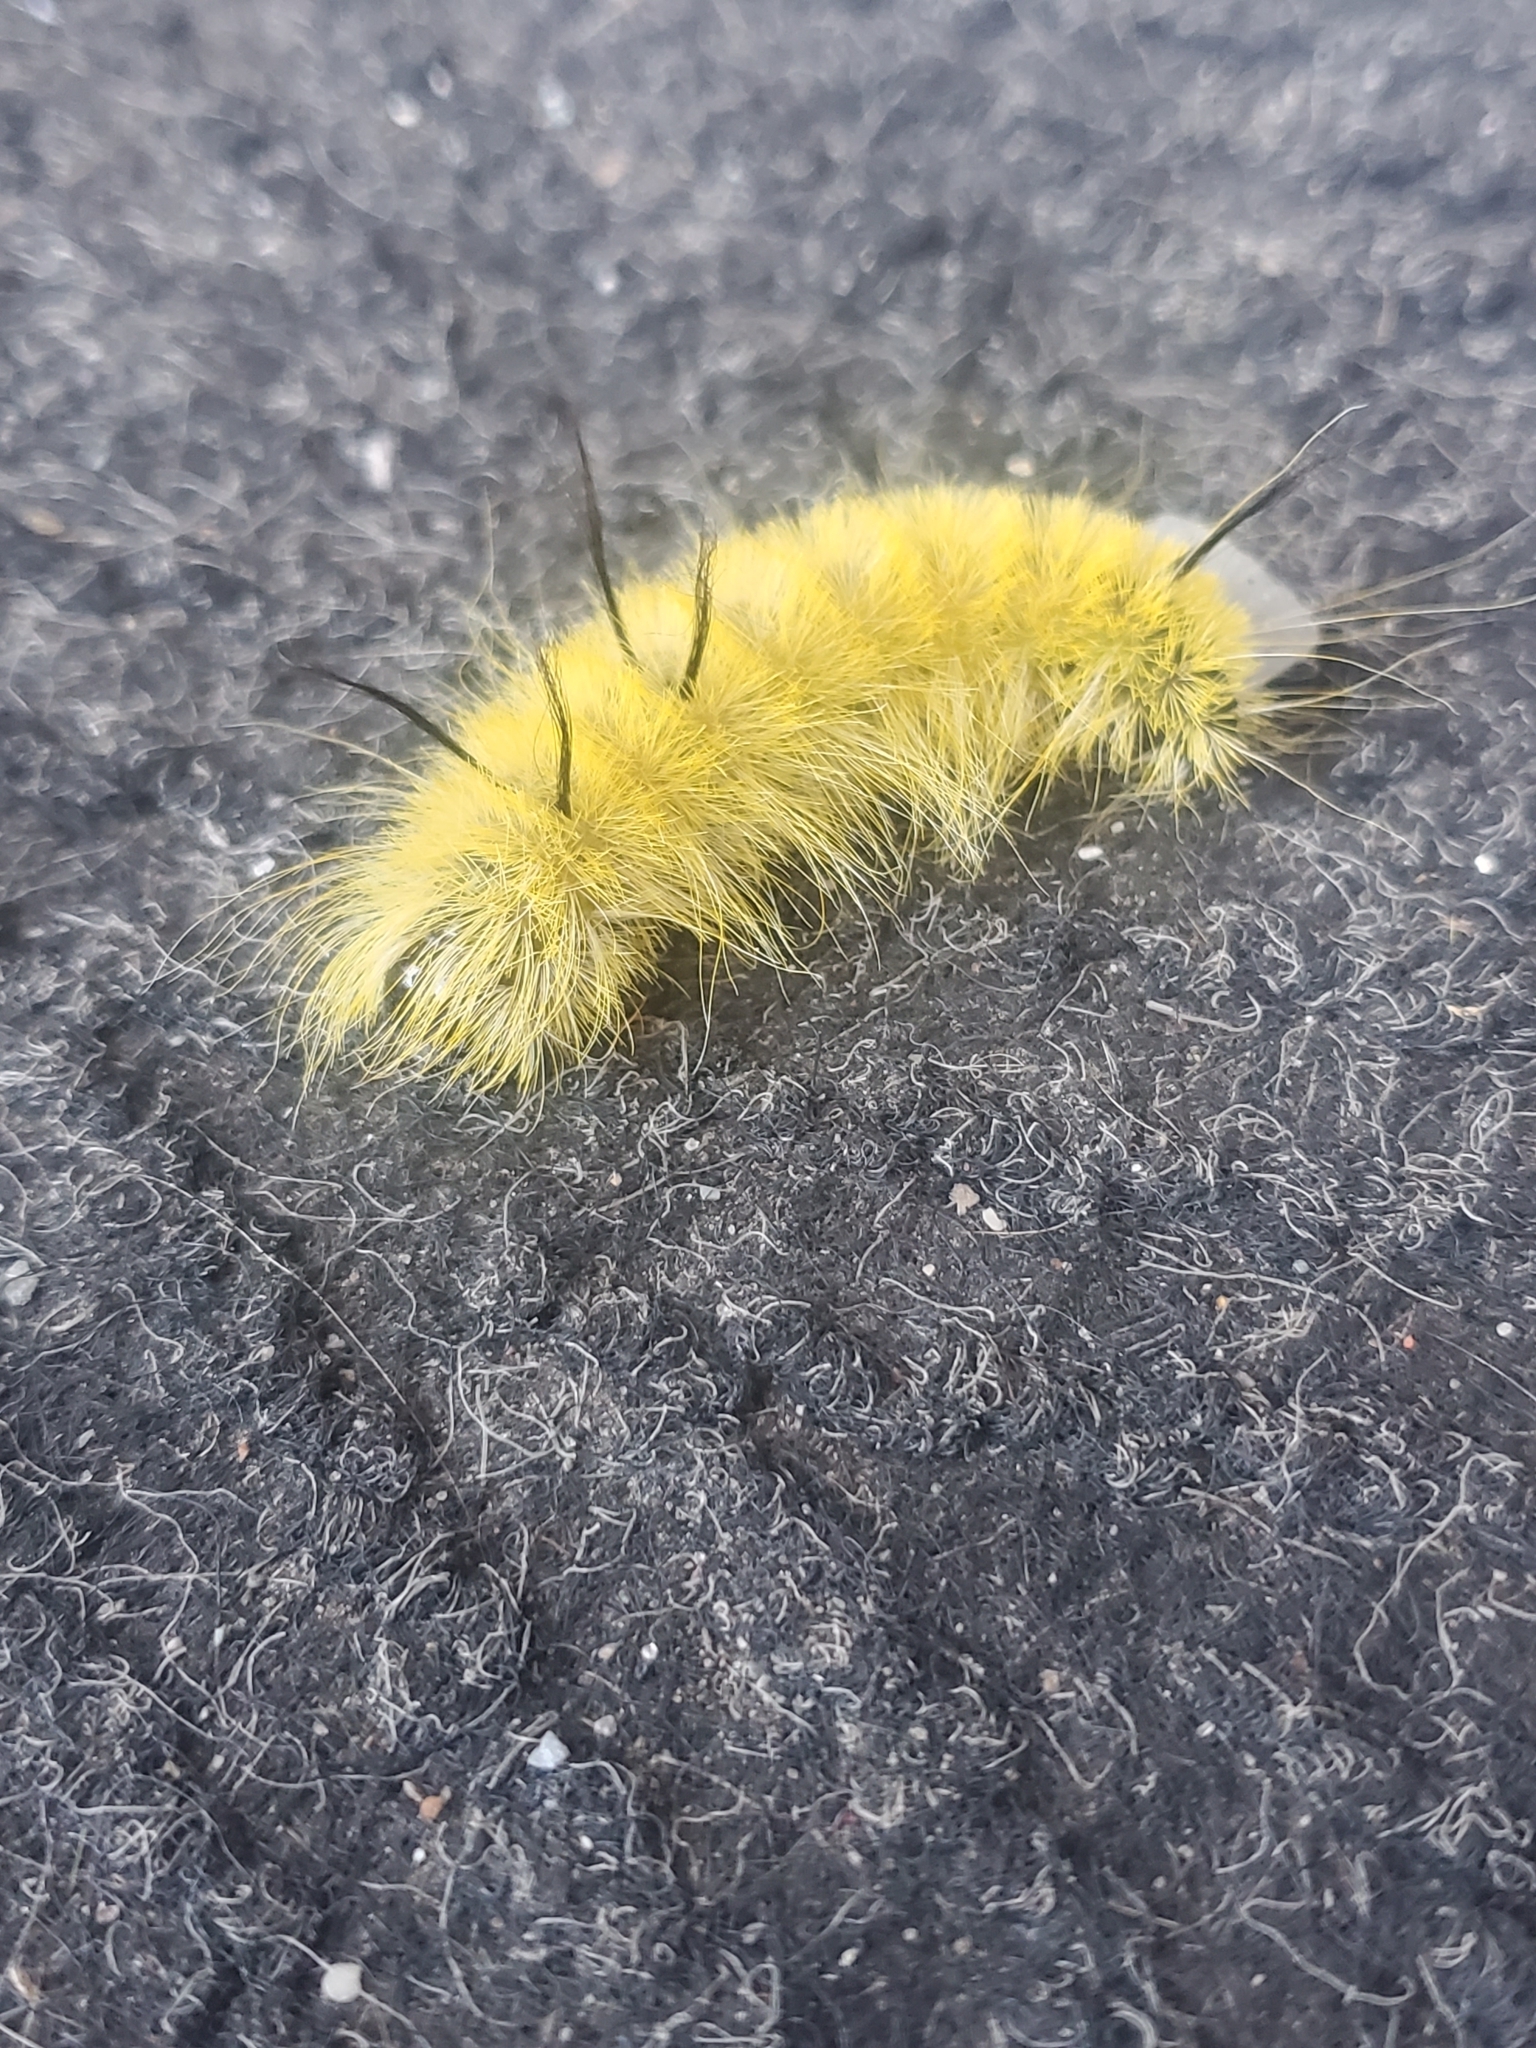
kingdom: Animalia
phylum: Arthropoda
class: Insecta
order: Lepidoptera
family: Noctuidae
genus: Acronicta
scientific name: Acronicta americana
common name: American dagger
